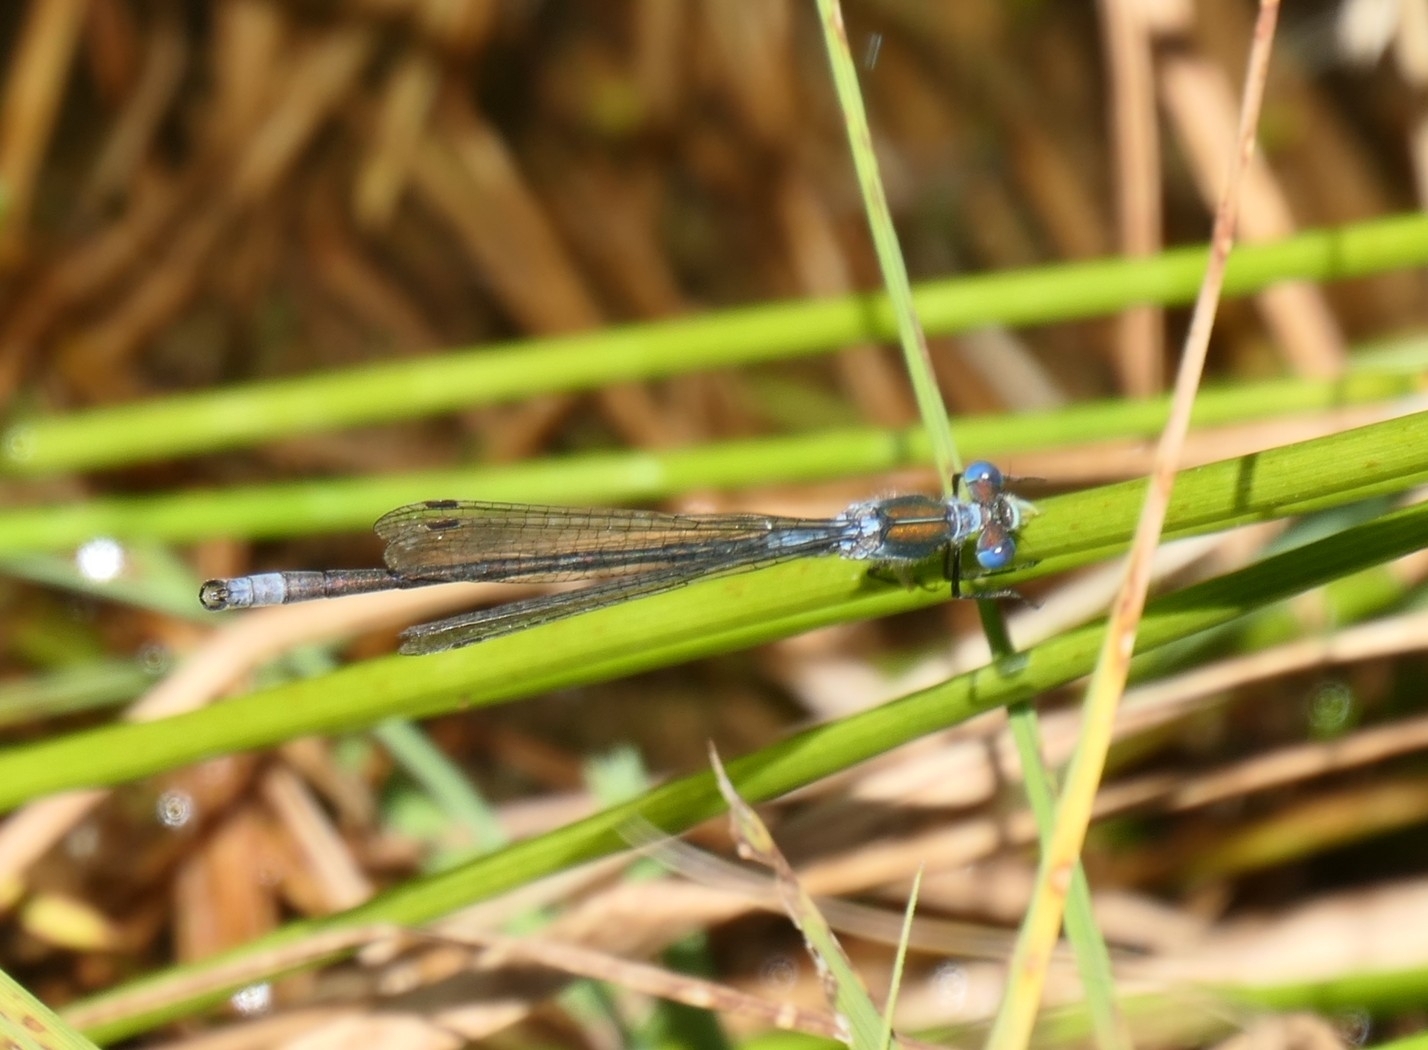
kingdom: Animalia
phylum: Arthropoda
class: Insecta
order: Odonata
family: Lestidae
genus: Lestes
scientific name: Lestes sponsa
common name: Common spreadwing
